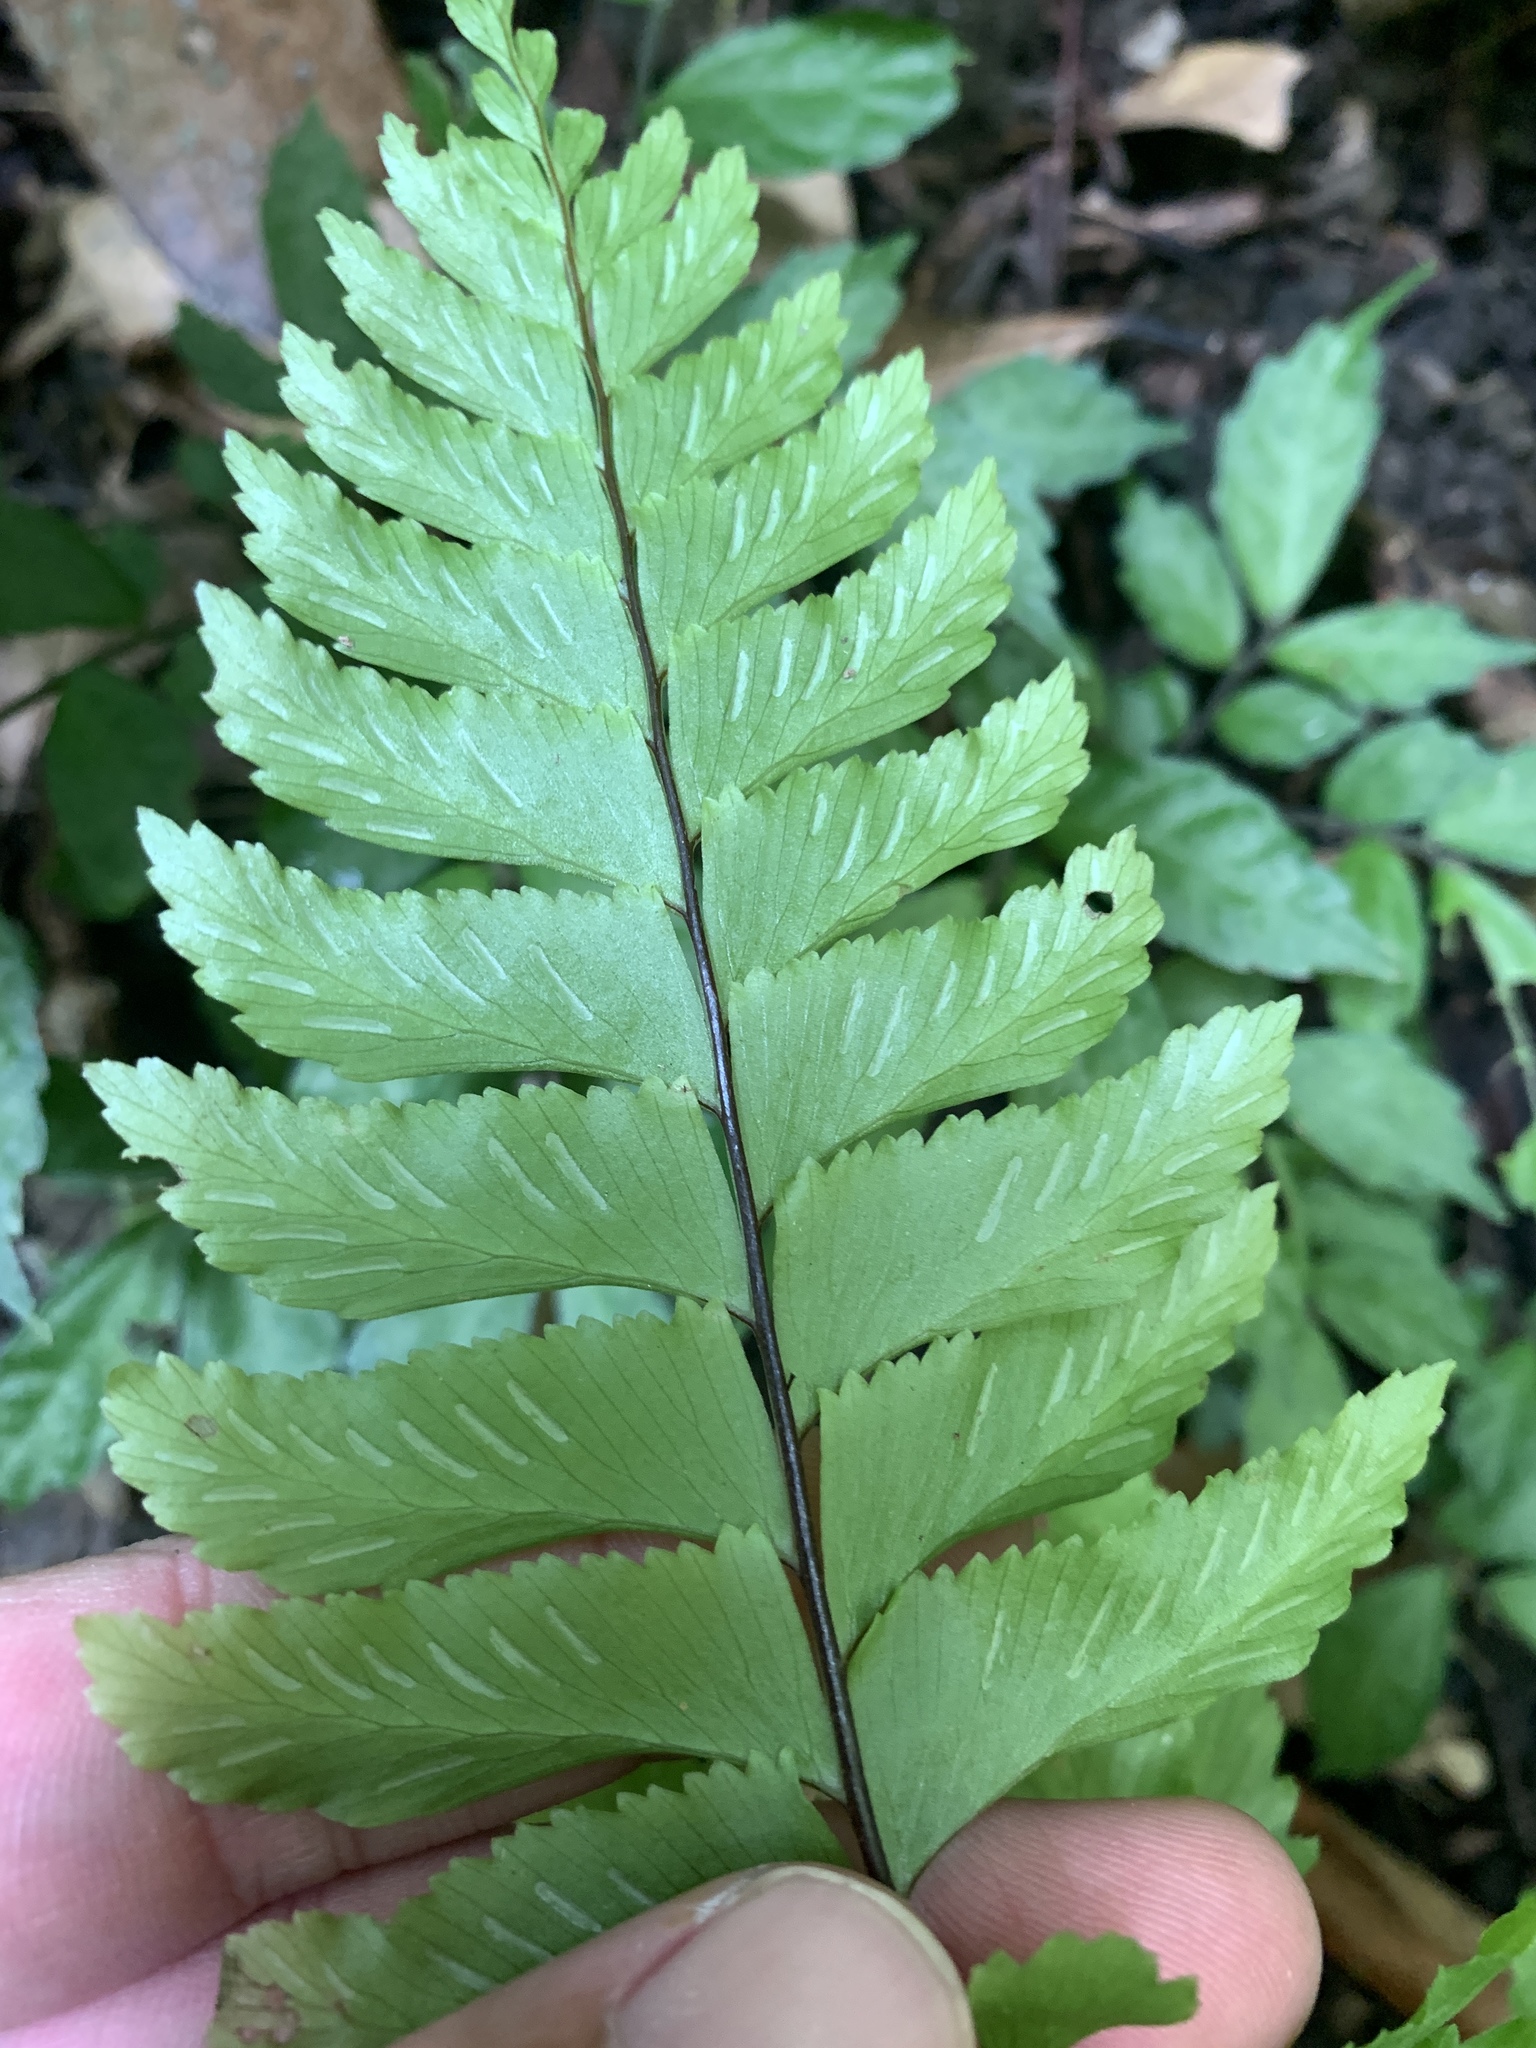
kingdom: Plantae
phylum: Tracheophyta
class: Polypodiopsida
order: Polypodiales
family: Aspleniaceae
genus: Hymenasplenium
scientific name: Hymenasplenium excisum
